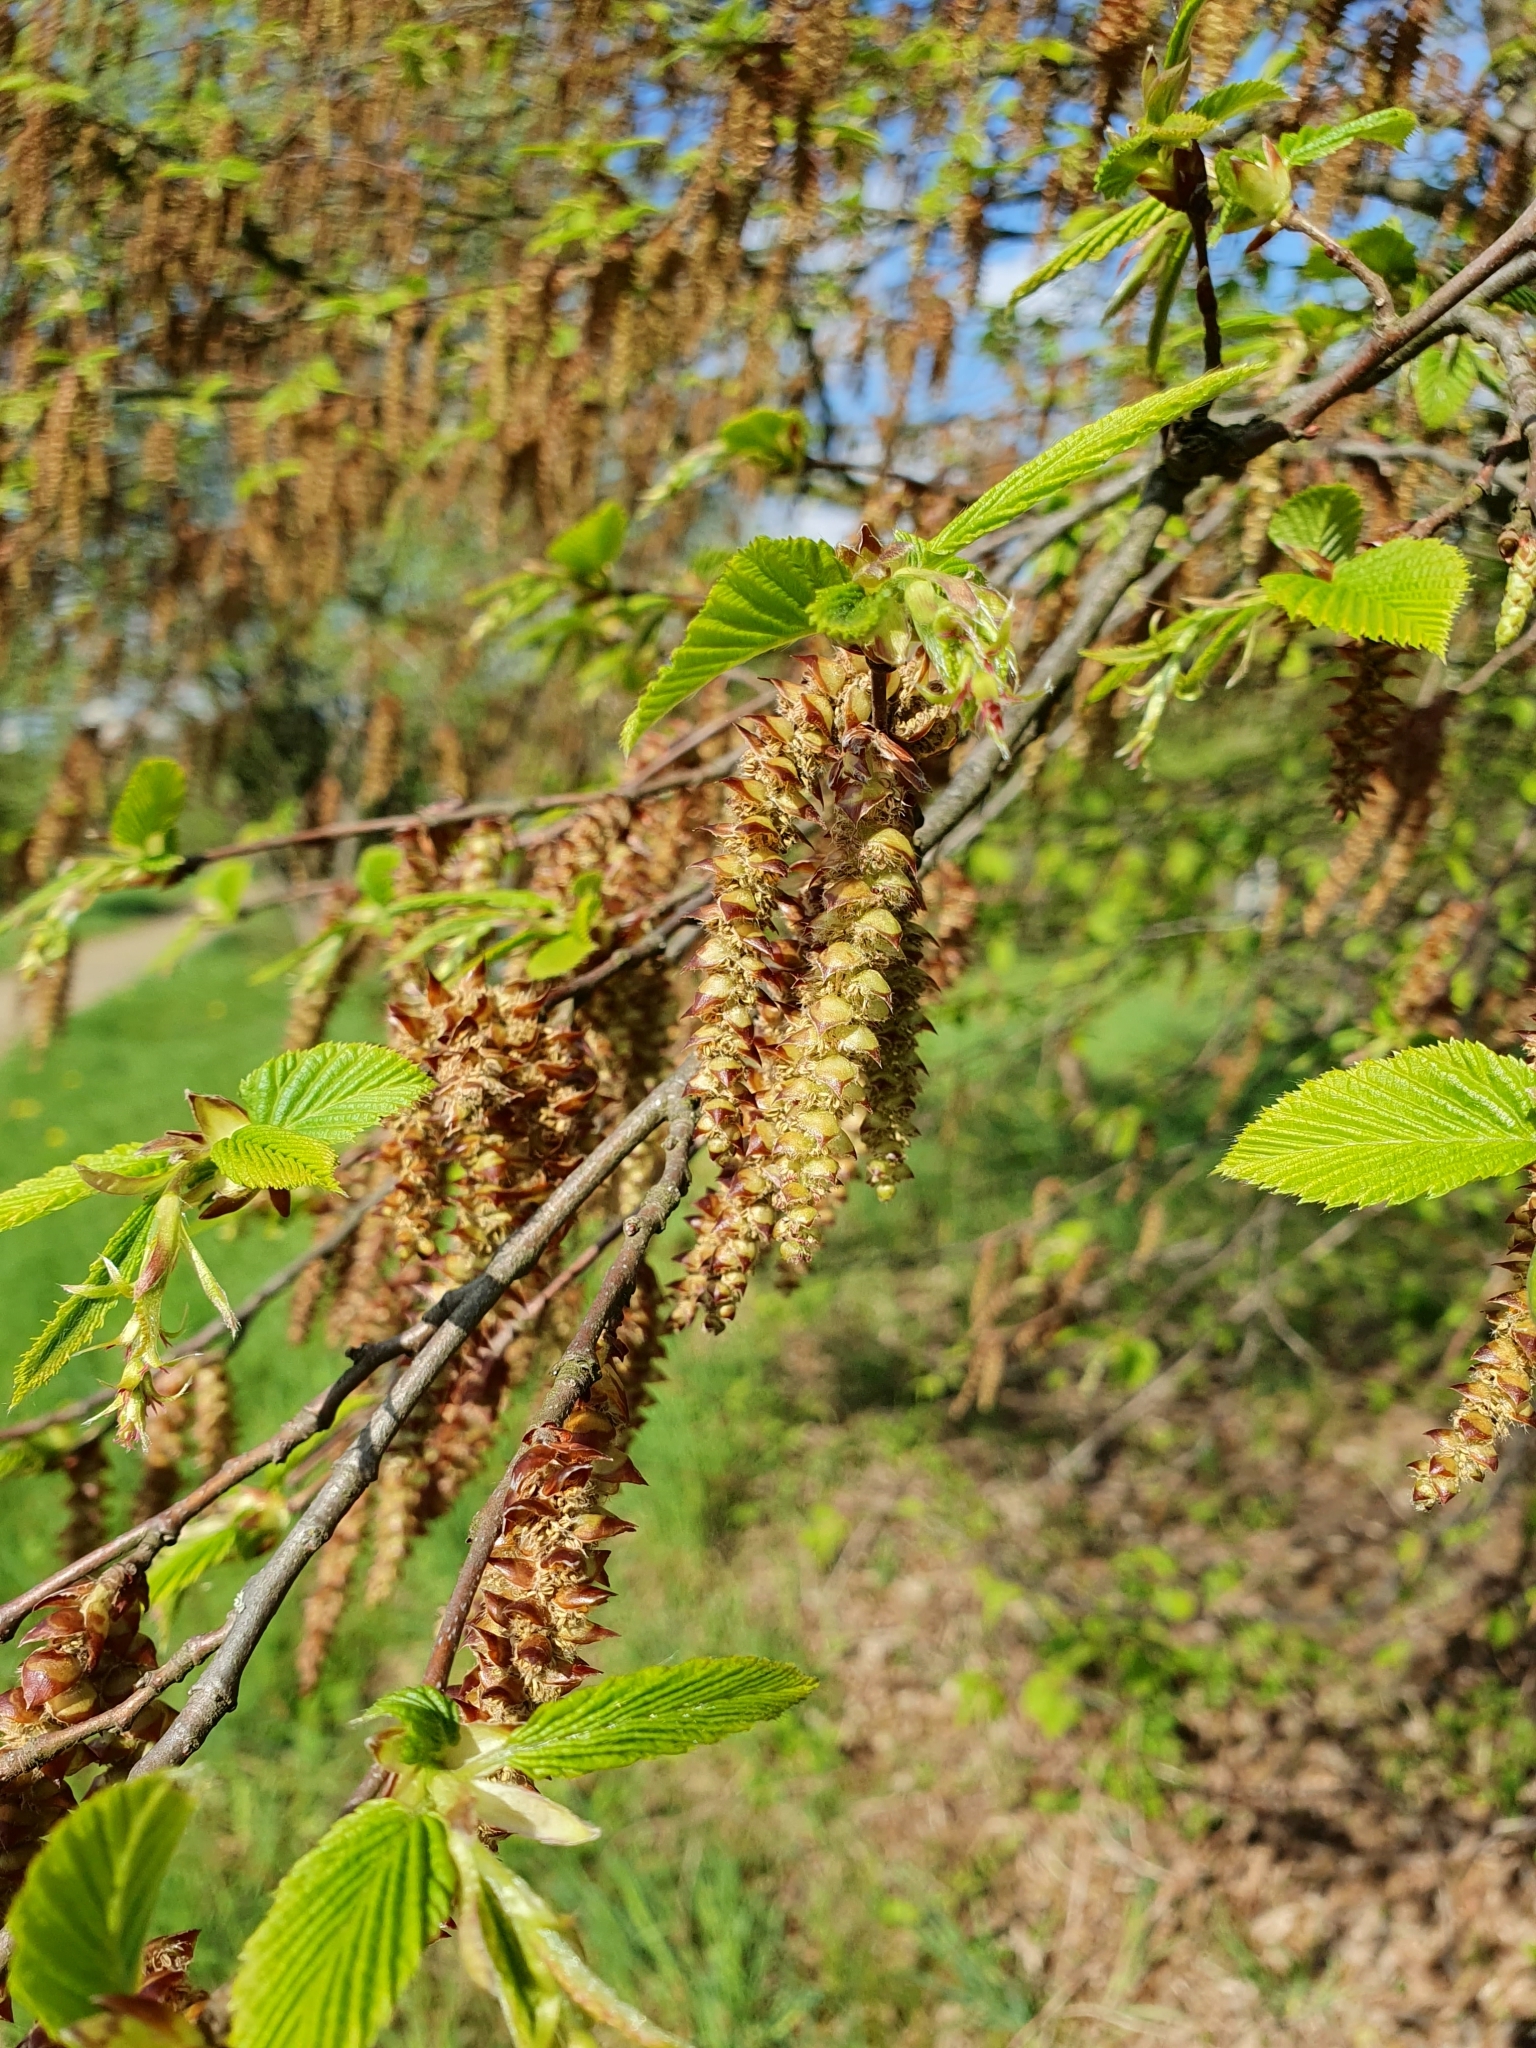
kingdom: Plantae
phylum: Tracheophyta
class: Magnoliopsida
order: Fagales
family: Betulaceae
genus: Carpinus
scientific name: Carpinus betulus
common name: Hornbeam
